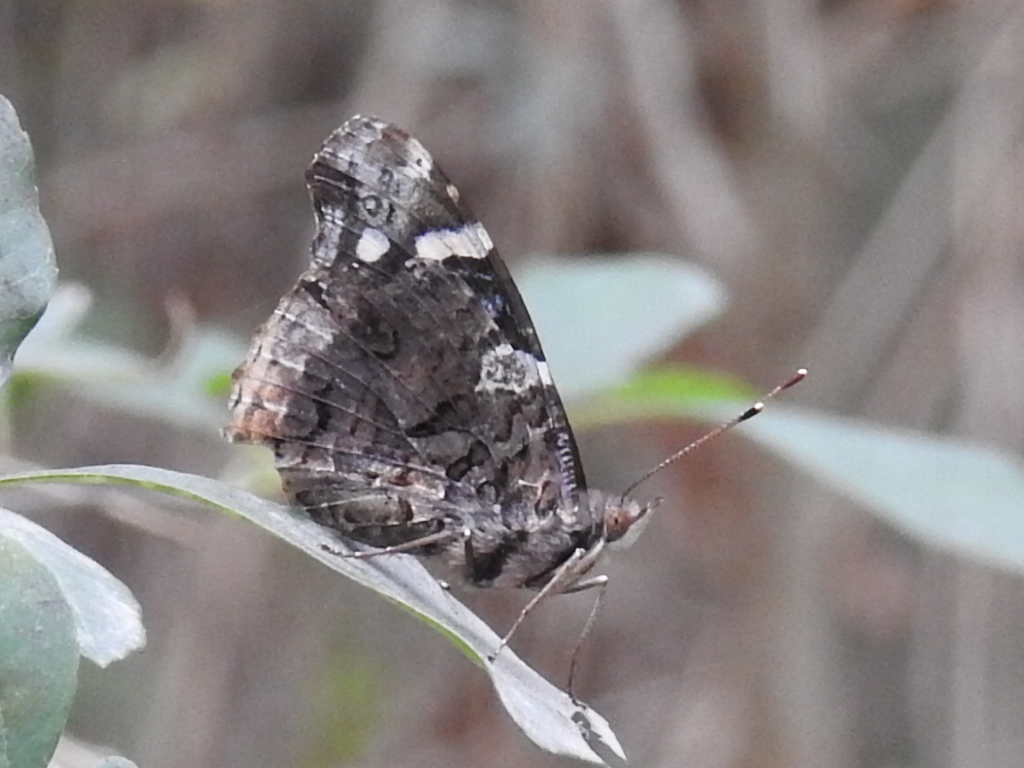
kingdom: Animalia
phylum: Arthropoda
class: Insecta
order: Lepidoptera
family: Nymphalidae
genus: Vanessa
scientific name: Vanessa atalanta
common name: Red admiral
